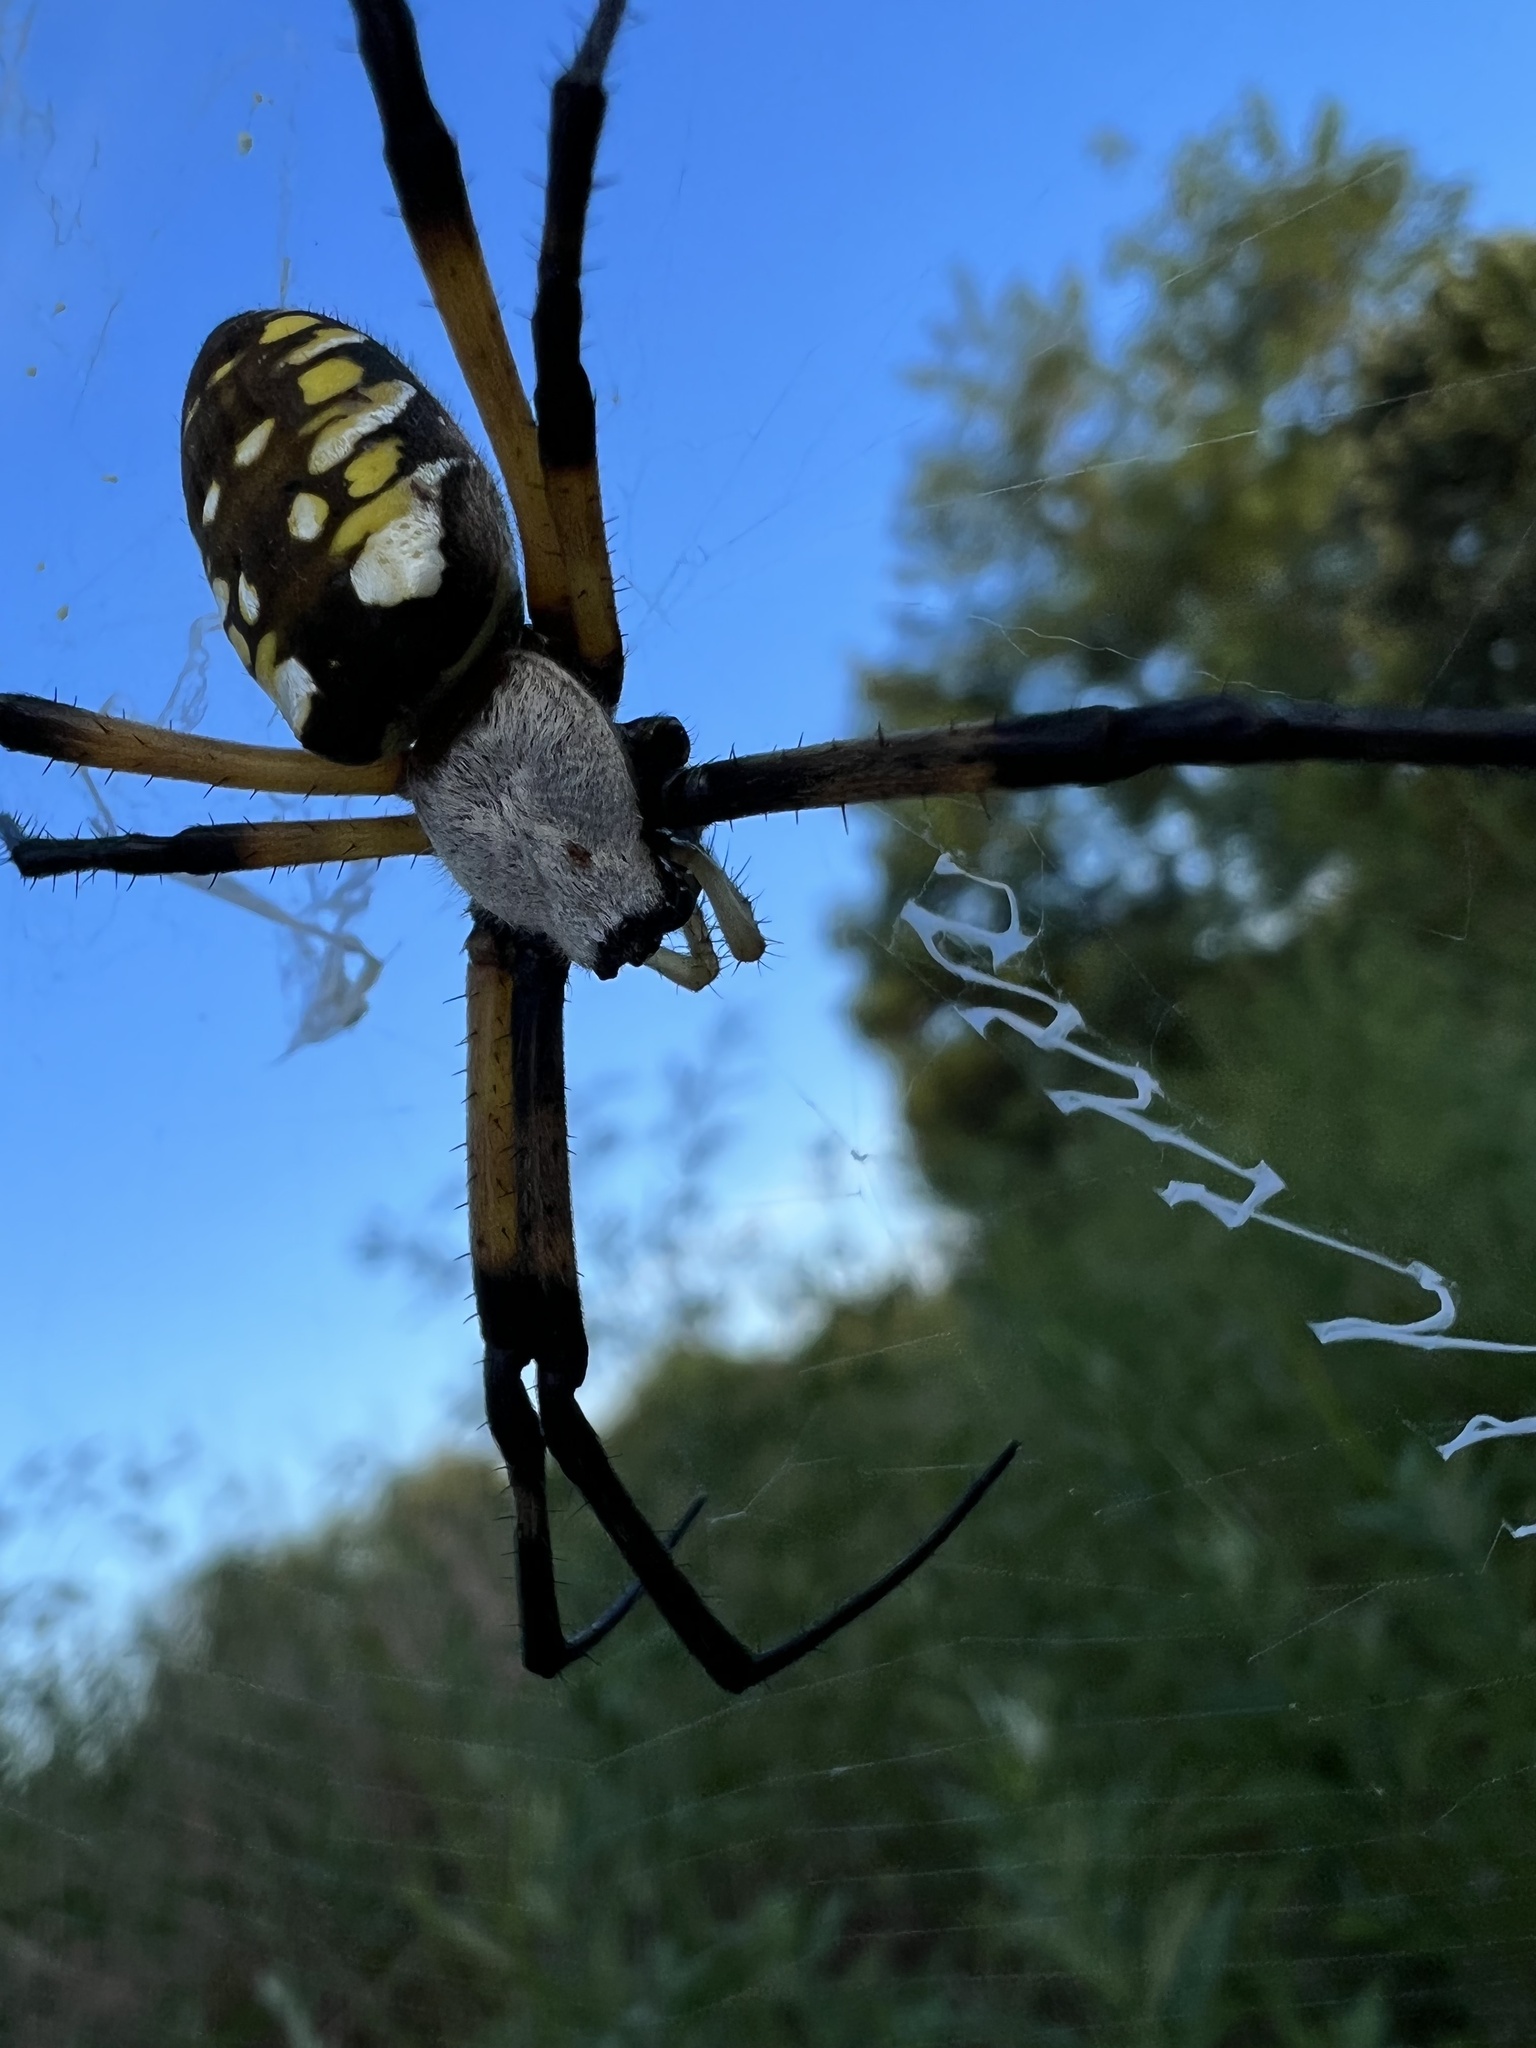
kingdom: Animalia
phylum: Arthropoda
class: Arachnida
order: Araneae
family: Araneidae
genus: Argiope
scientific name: Argiope aurantia
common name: Orb weavers
